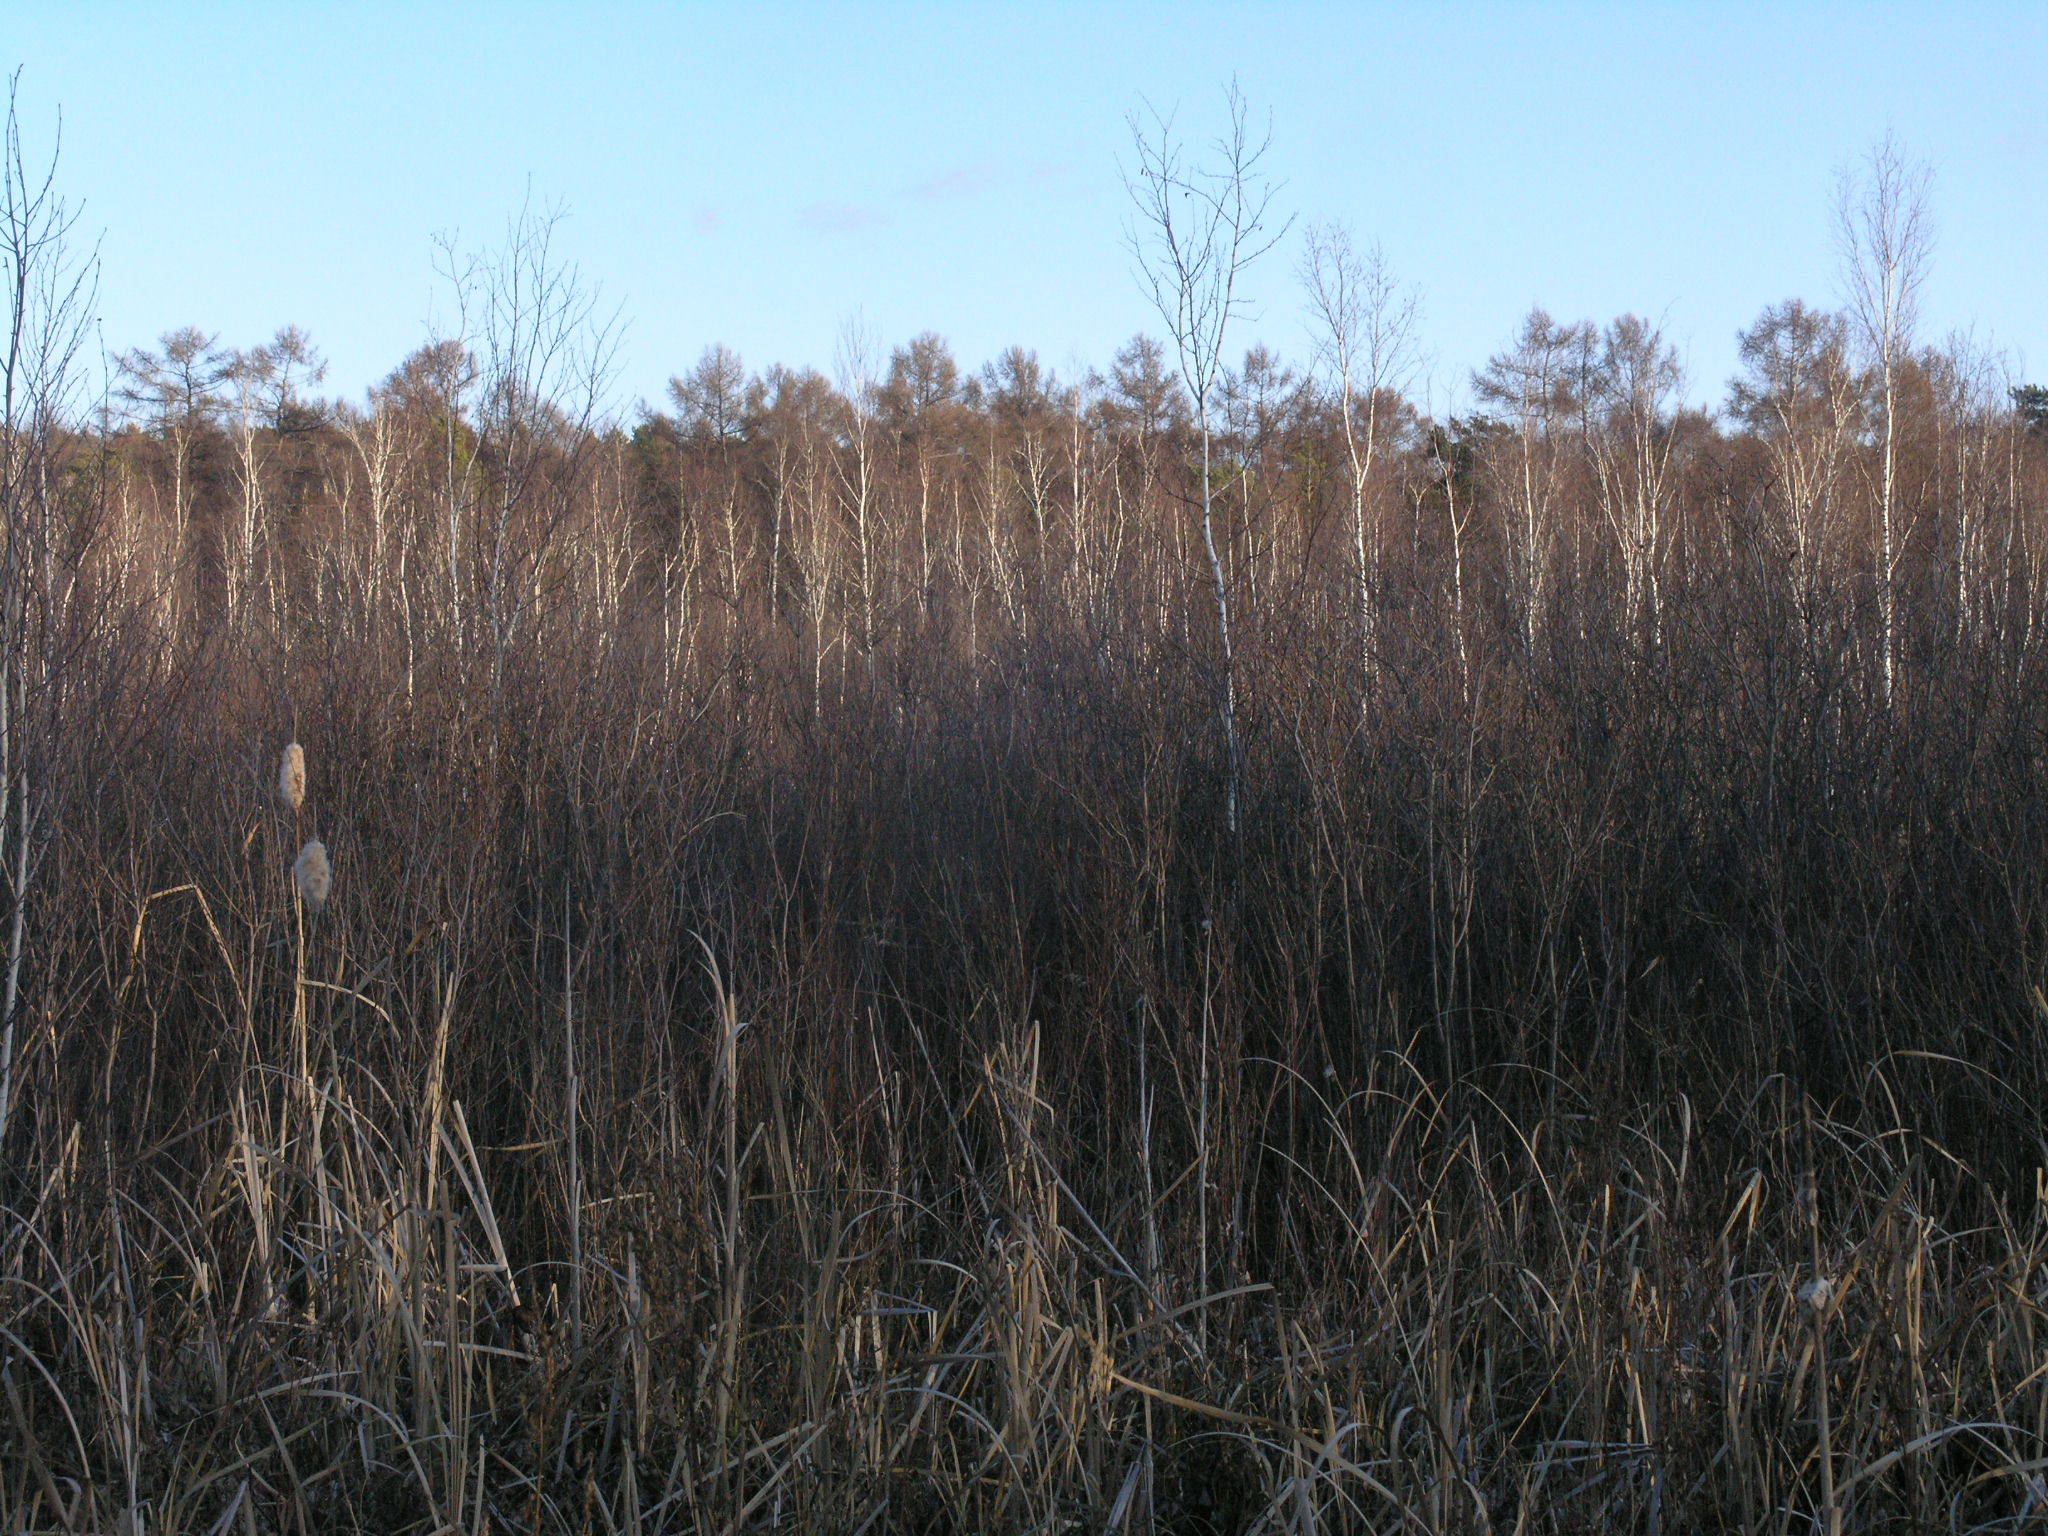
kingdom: Plantae
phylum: Tracheophyta
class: Pinopsida
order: Pinales
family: Pinaceae
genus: Larix
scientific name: Larix sibirica
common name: Siberian larch
